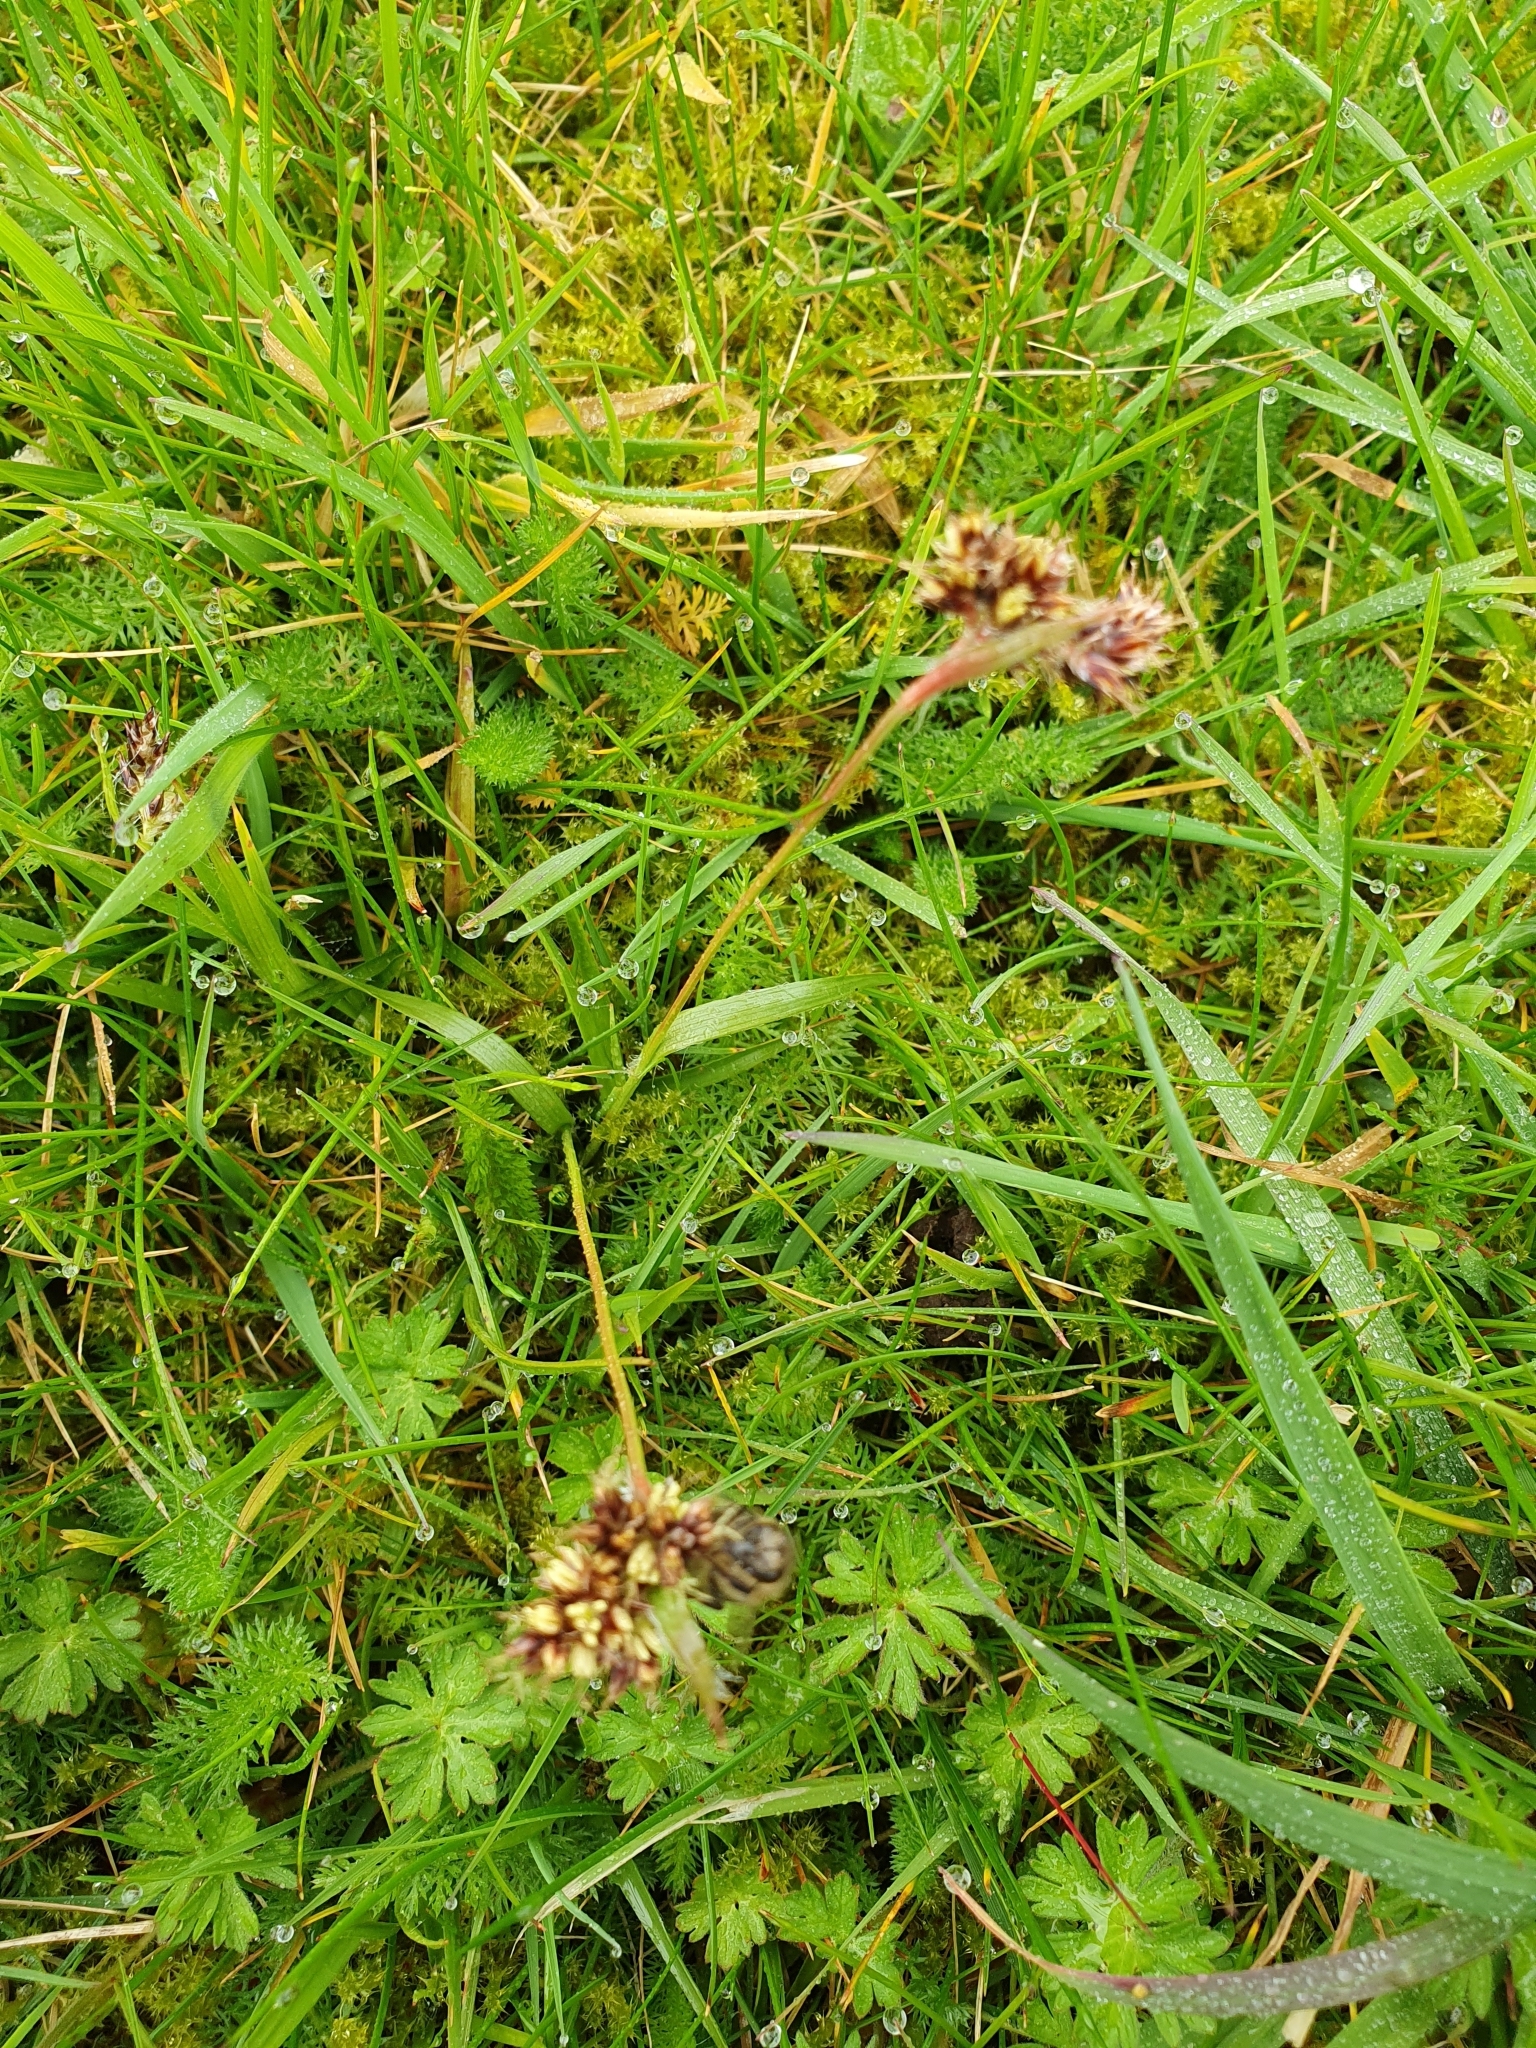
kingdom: Plantae
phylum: Tracheophyta
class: Liliopsida
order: Poales
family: Juncaceae
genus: Luzula
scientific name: Luzula campestris
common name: Field wood-rush
